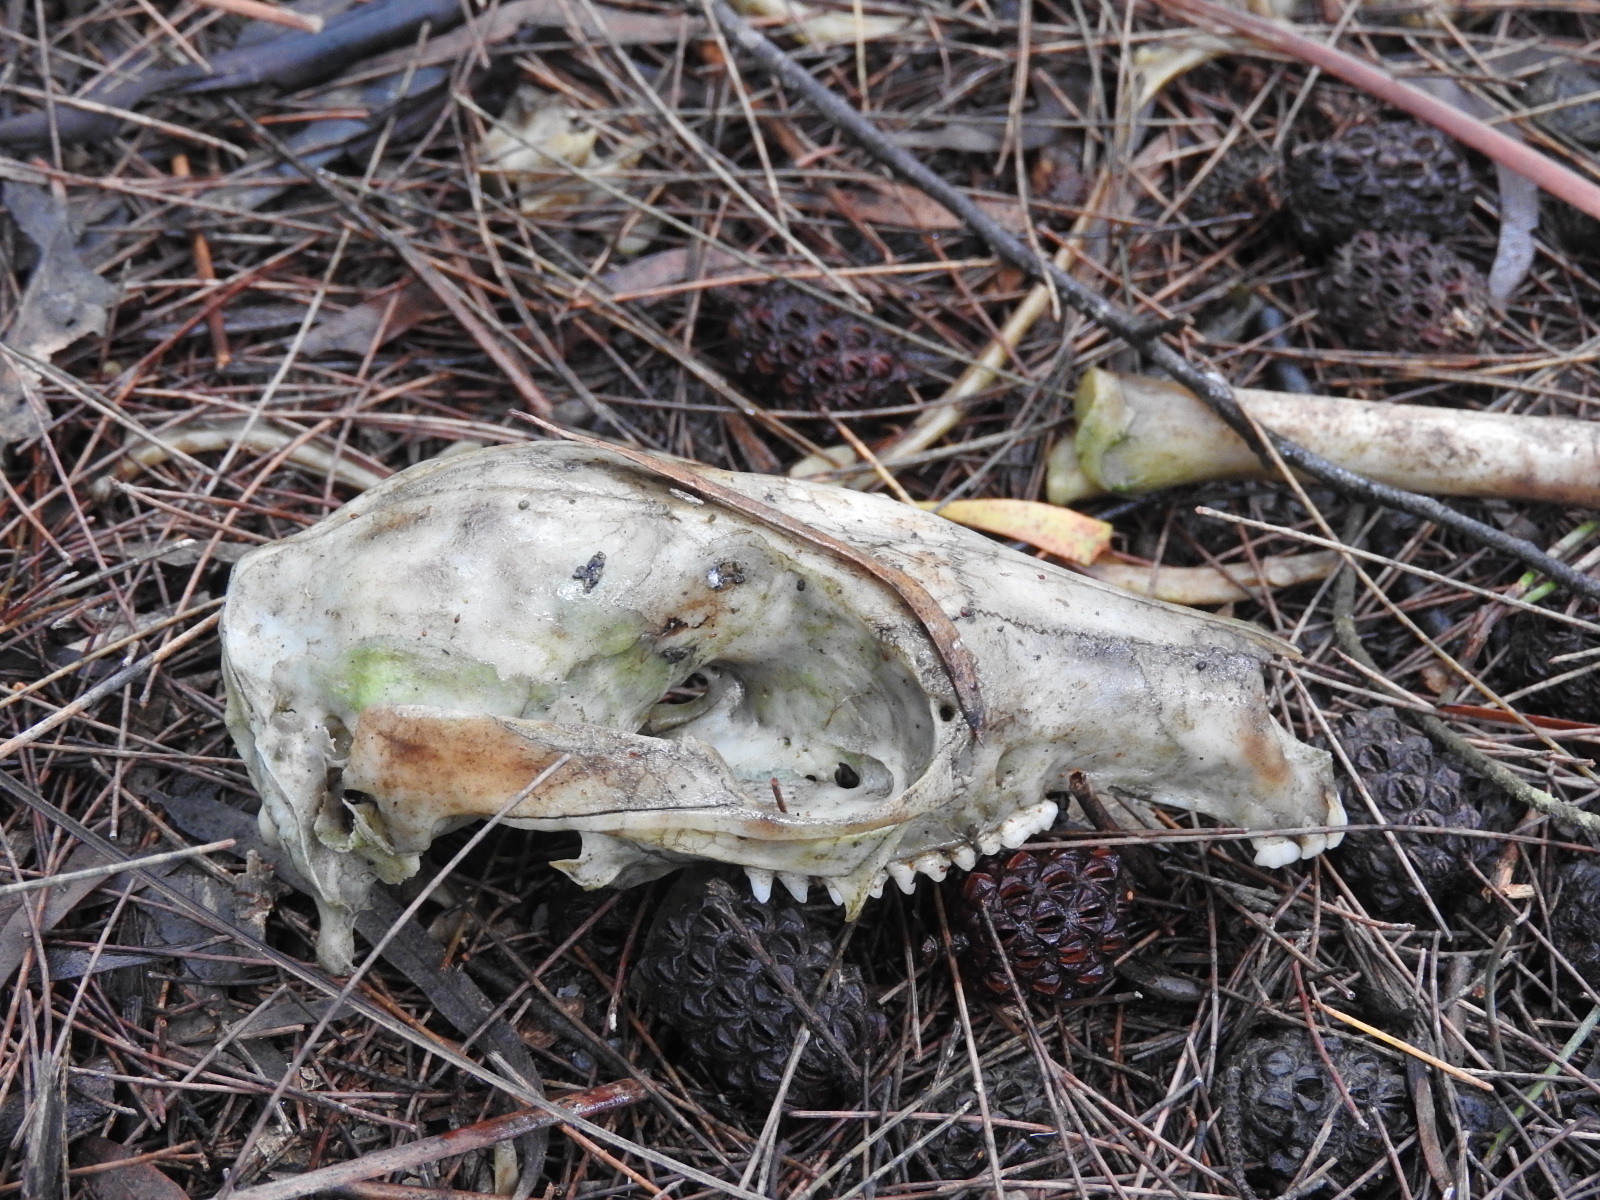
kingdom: Animalia
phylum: Chordata
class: Mammalia
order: Diprotodontia
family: Macropodidae
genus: Notamacropus
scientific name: Notamacropus rufogriseus
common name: Red-necked wallaby
